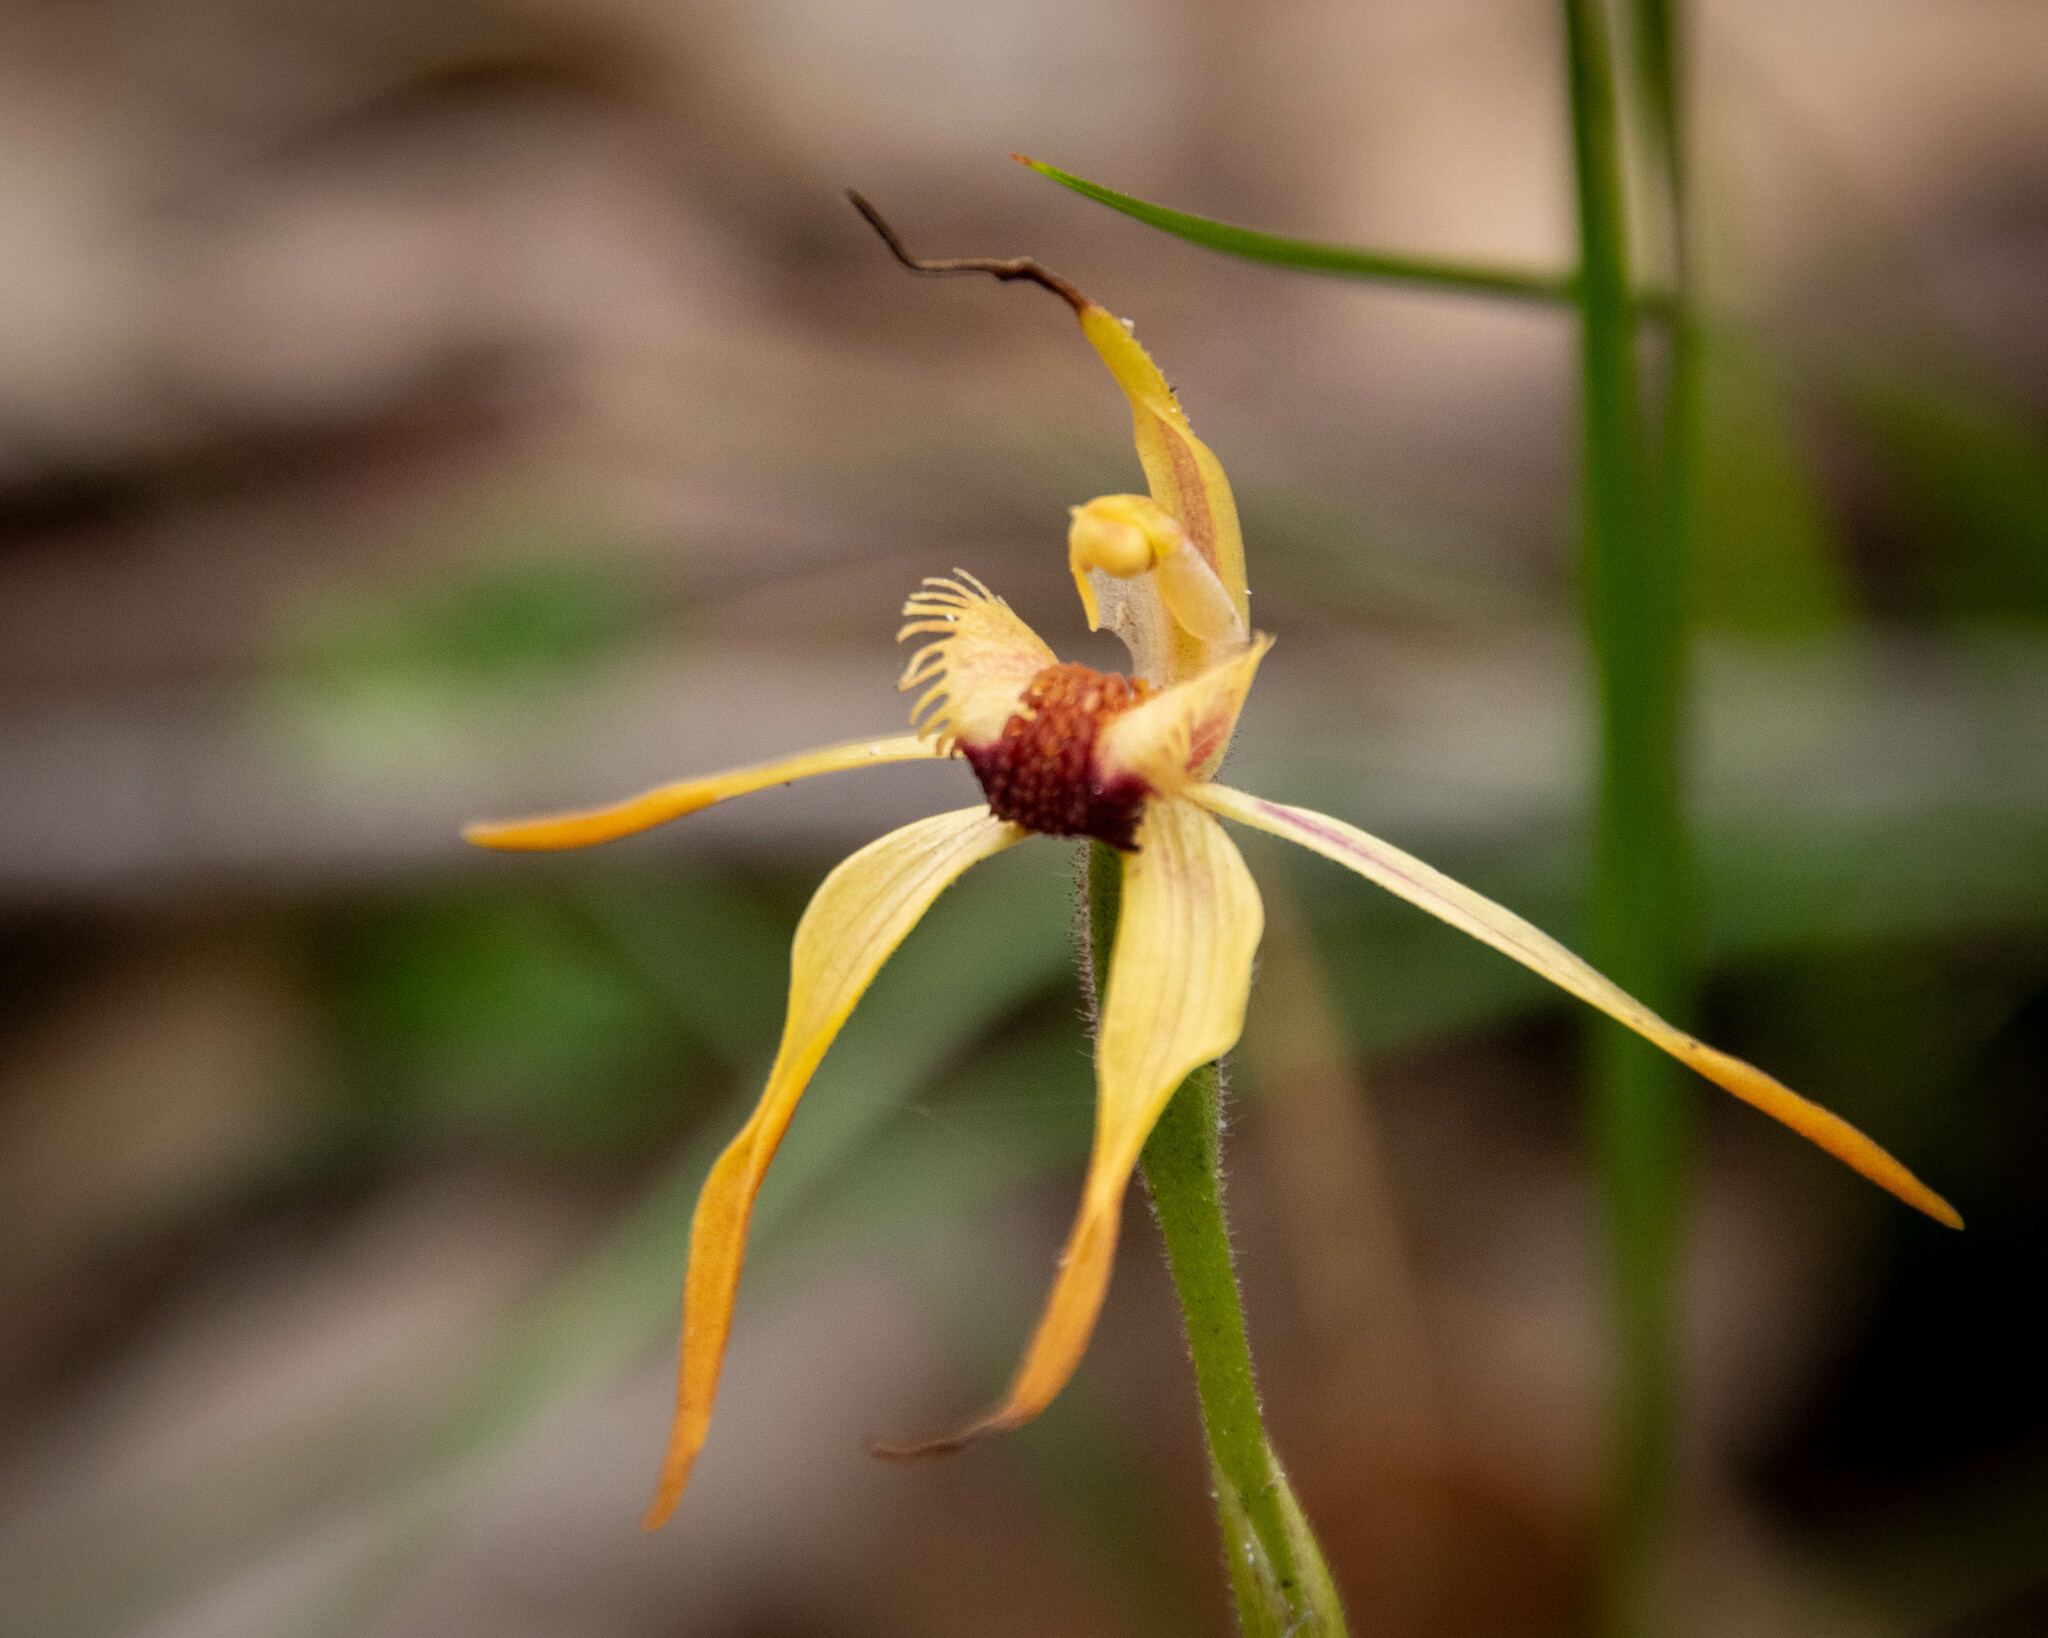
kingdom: Plantae
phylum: Tracheophyta
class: Liliopsida
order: Asparagales
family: Orchidaceae
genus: Caladenia
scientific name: Caladenia ensata
